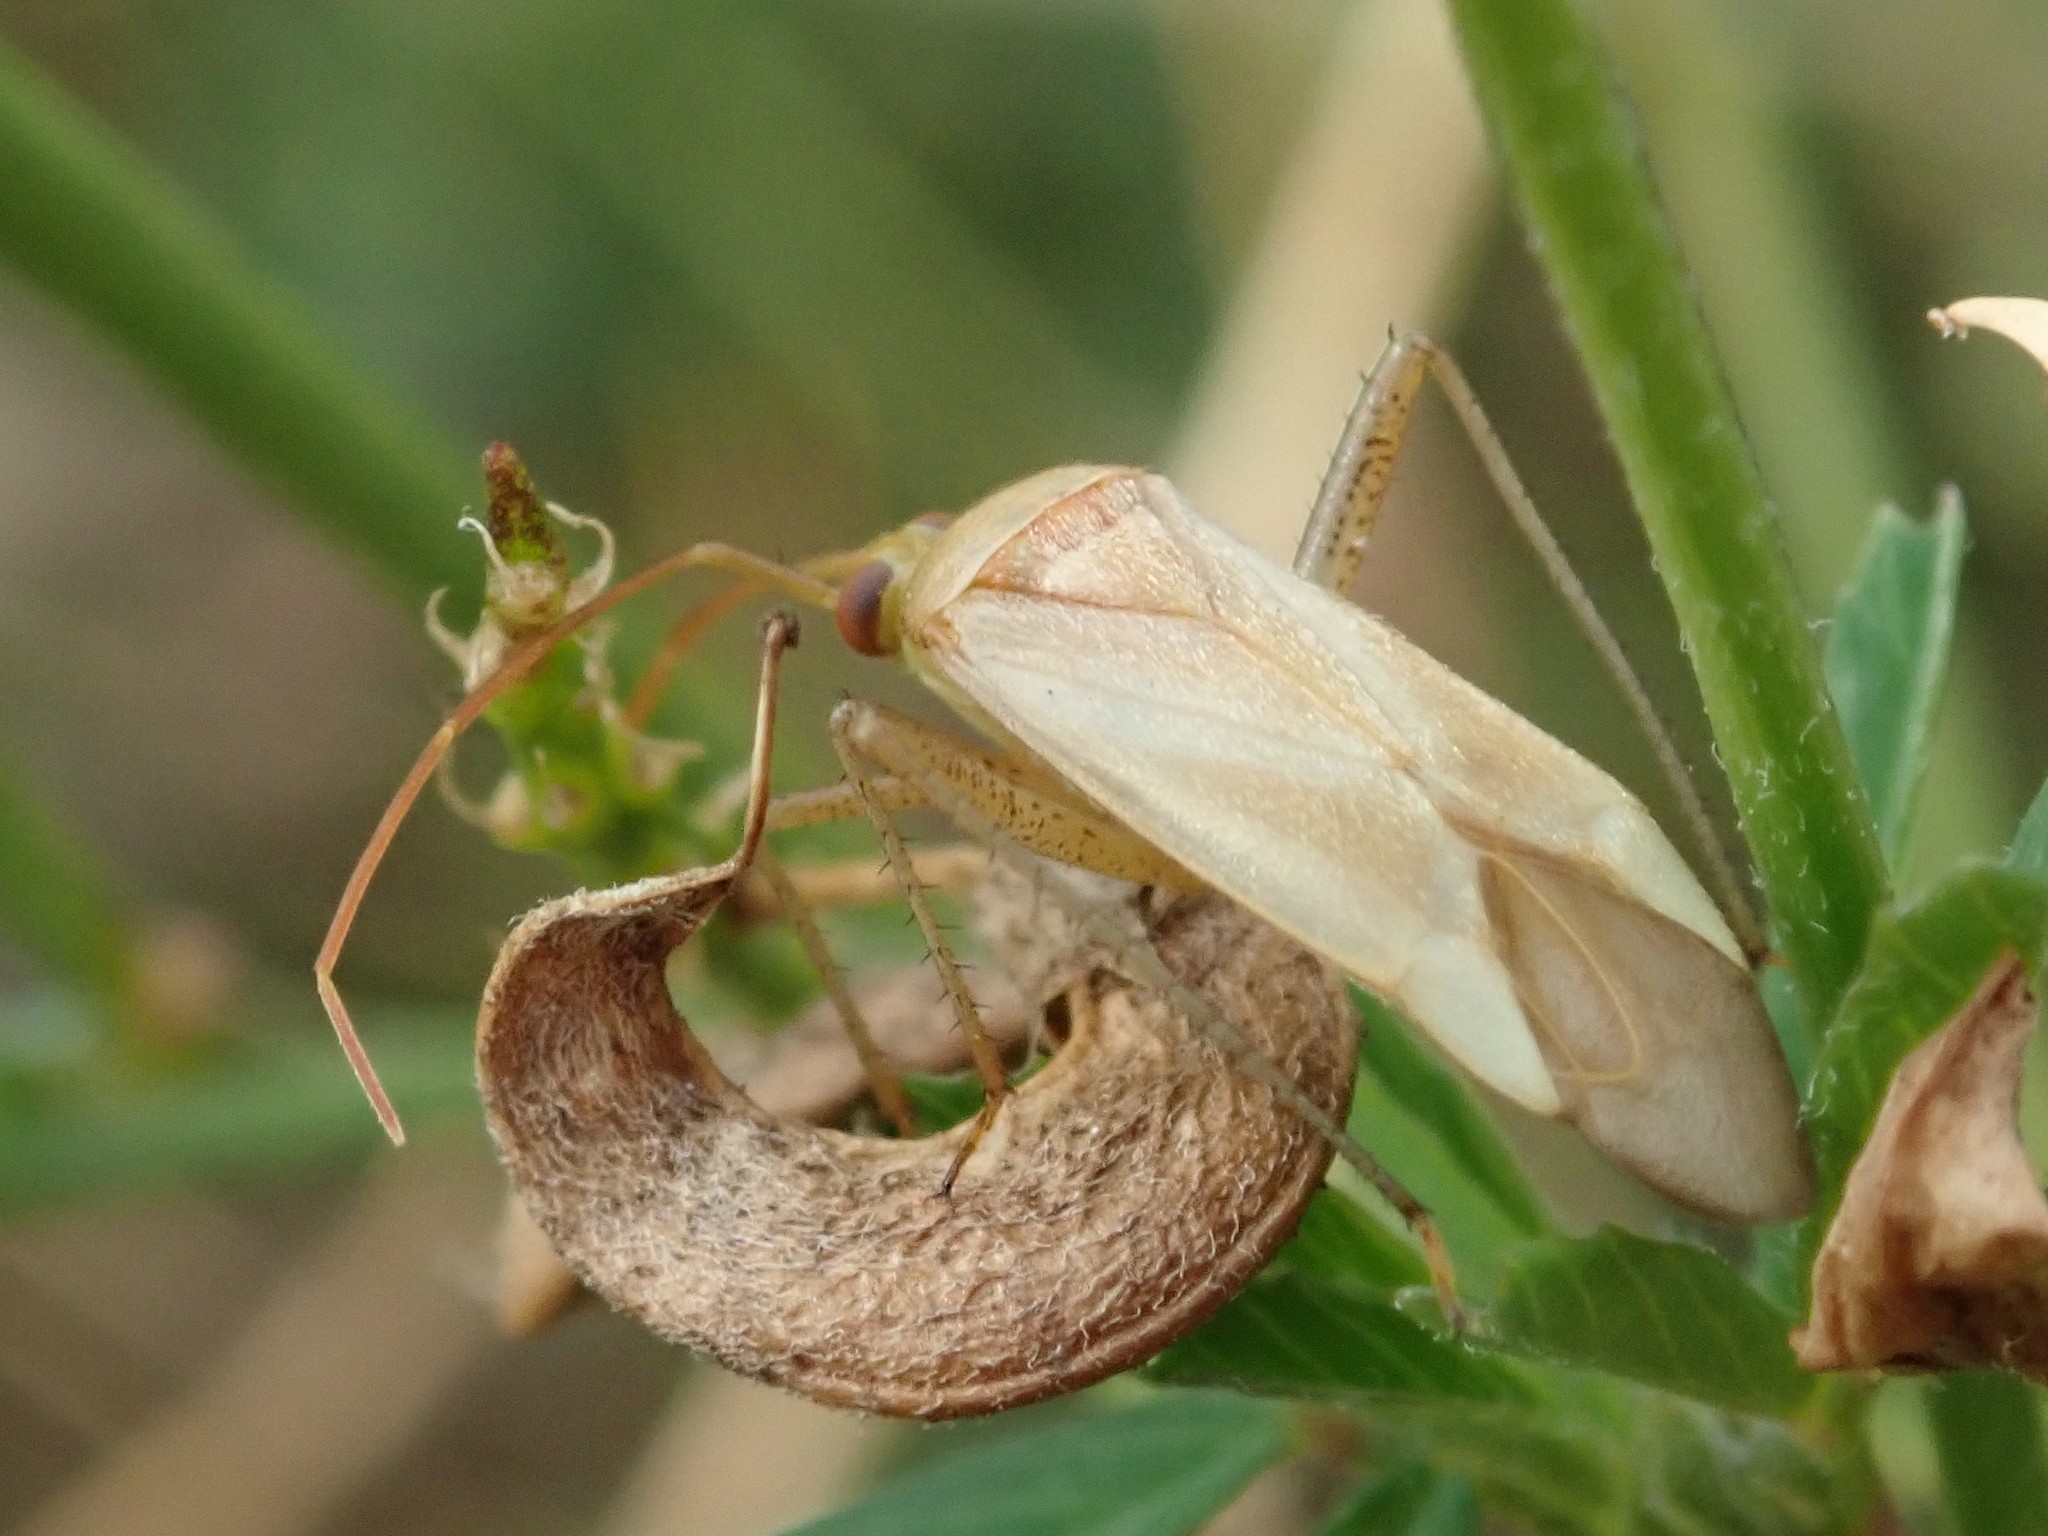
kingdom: Animalia
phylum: Arthropoda
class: Insecta
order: Hemiptera
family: Miridae
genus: Adelphocoris
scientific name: Adelphocoris lineolatus
